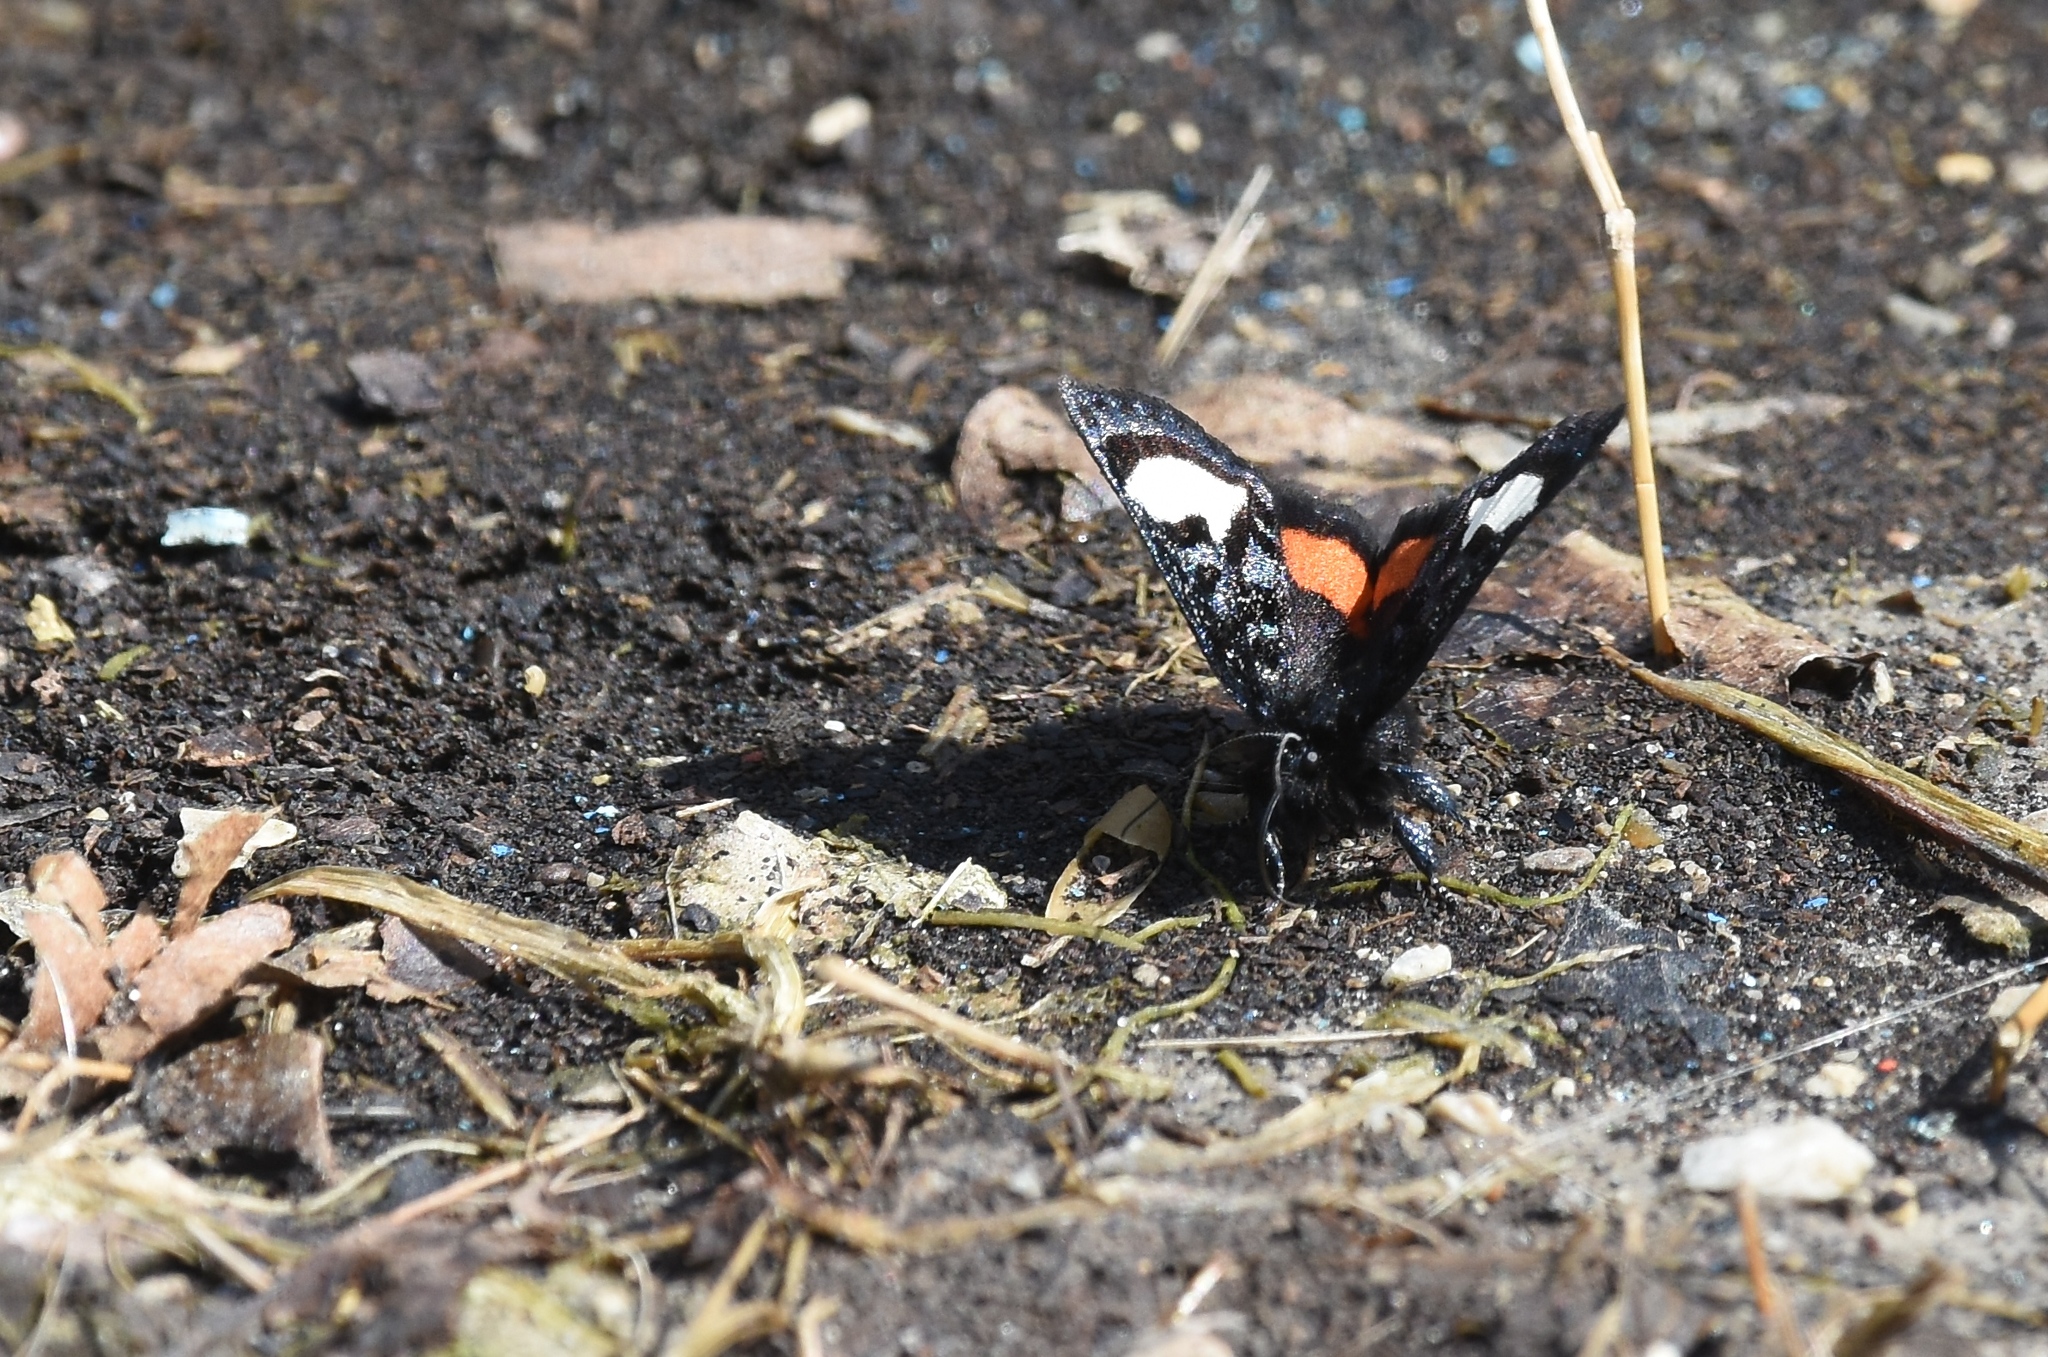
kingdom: Animalia
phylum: Arthropoda
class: Insecta
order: Lepidoptera
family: Noctuidae
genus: Psychomorpha
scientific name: Psychomorpha epimenis
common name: Grapevine epimenis moth
